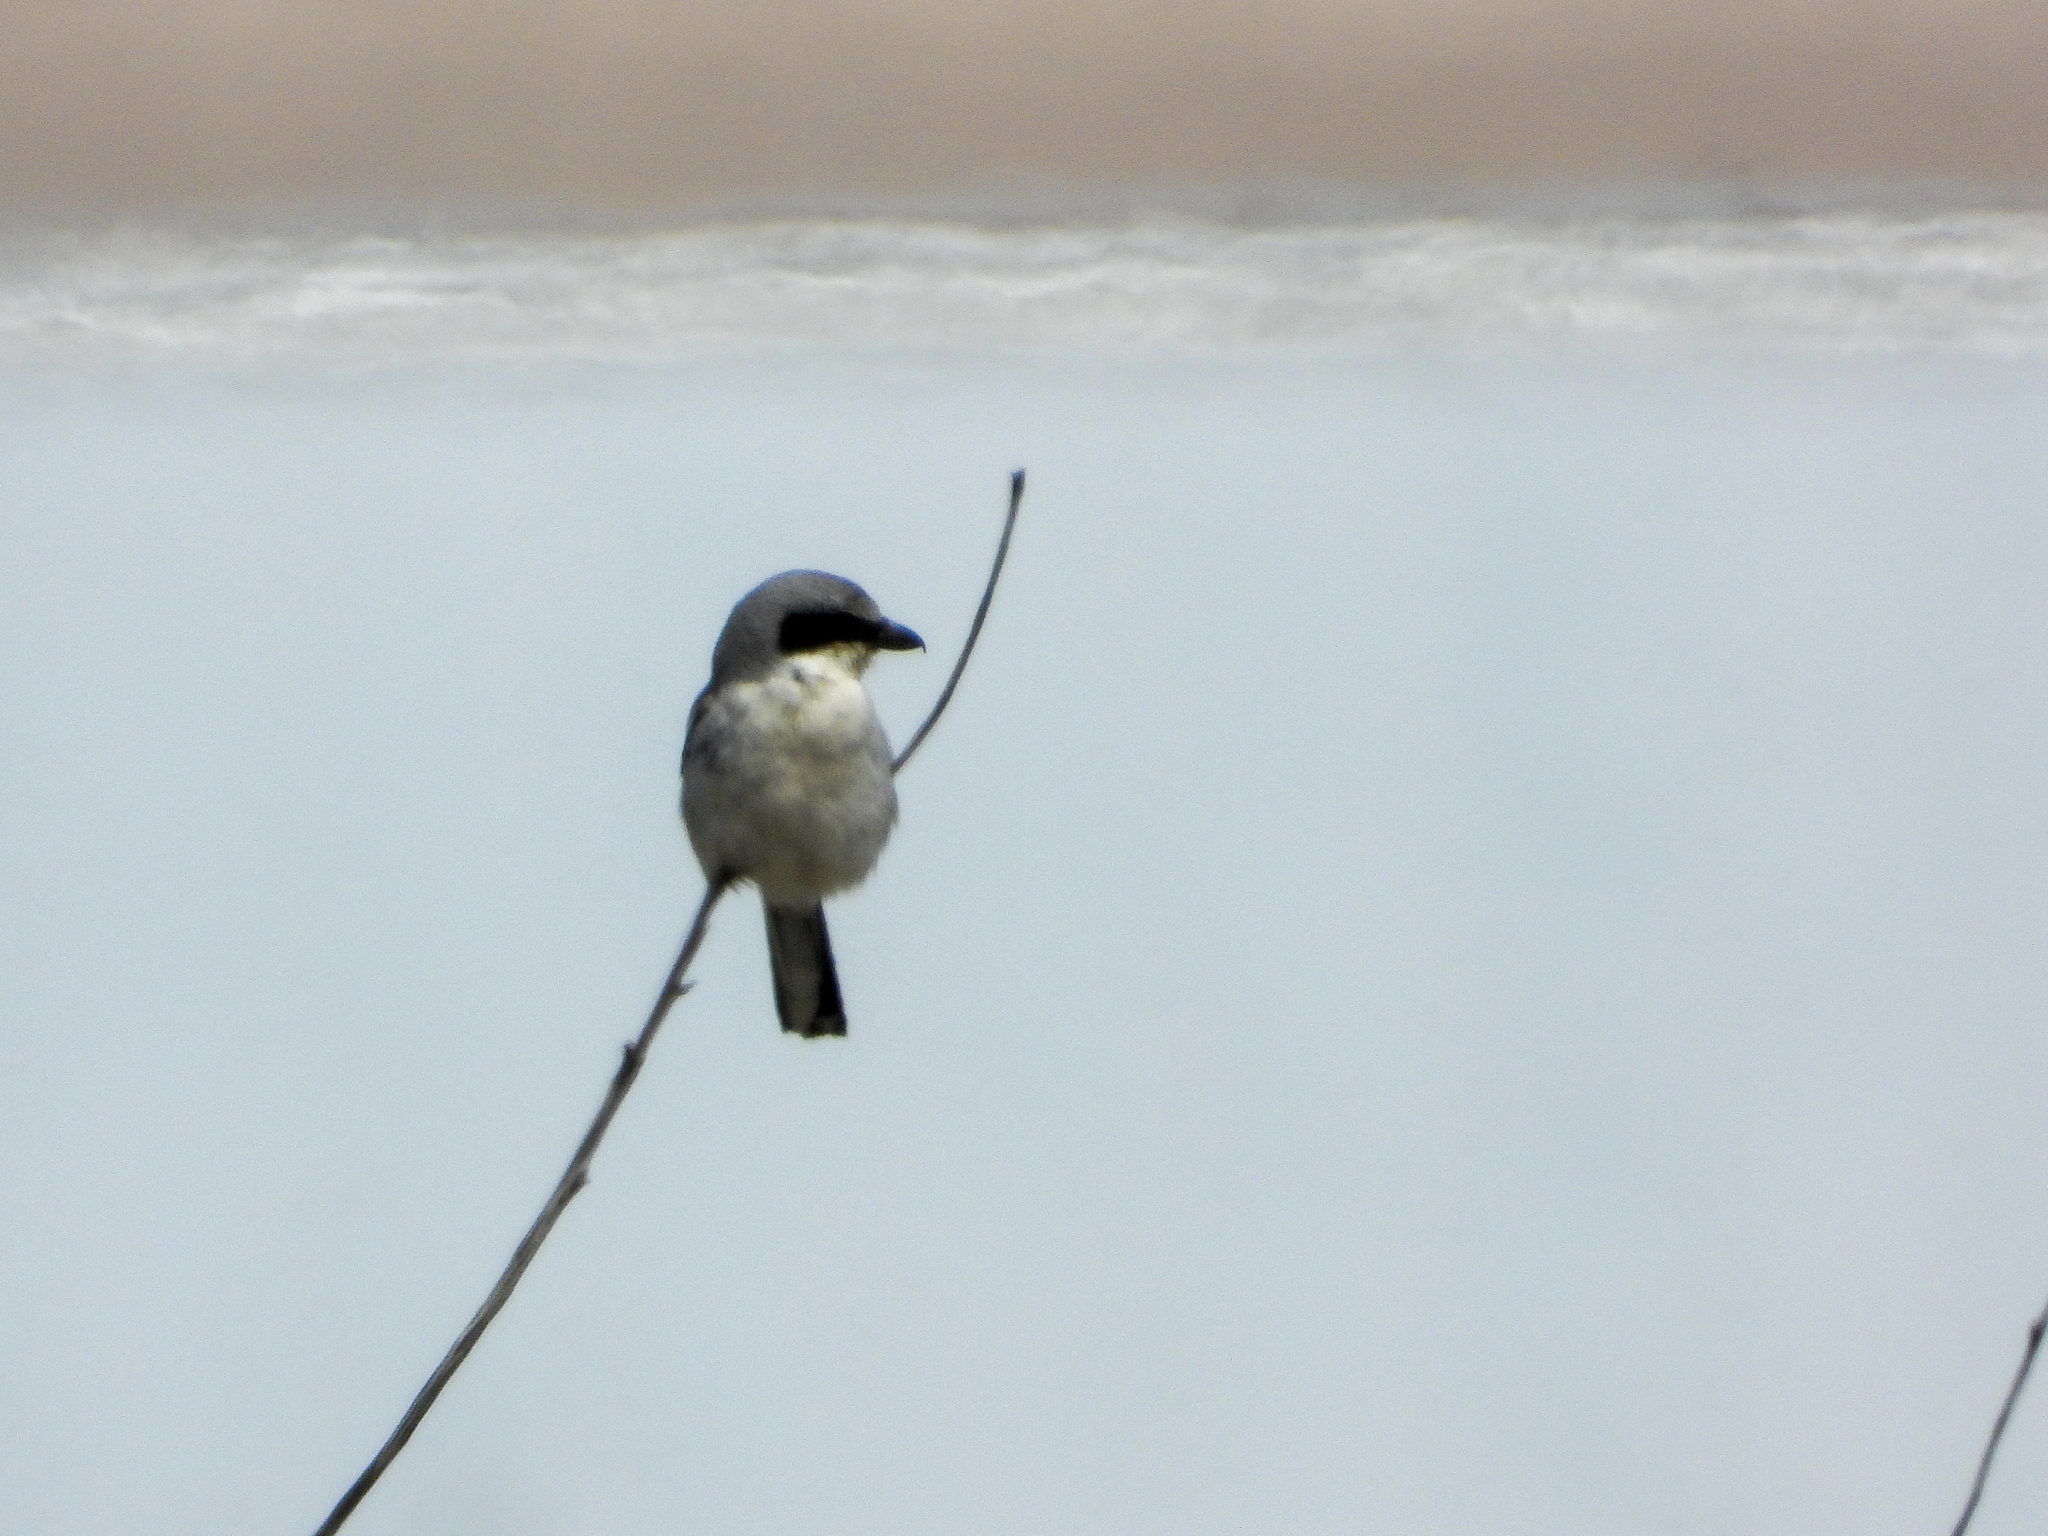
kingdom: Animalia
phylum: Chordata
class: Aves
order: Passeriformes
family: Laniidae
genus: Lanius
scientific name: Lanius ludovicianus
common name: Loggerhead shrike
